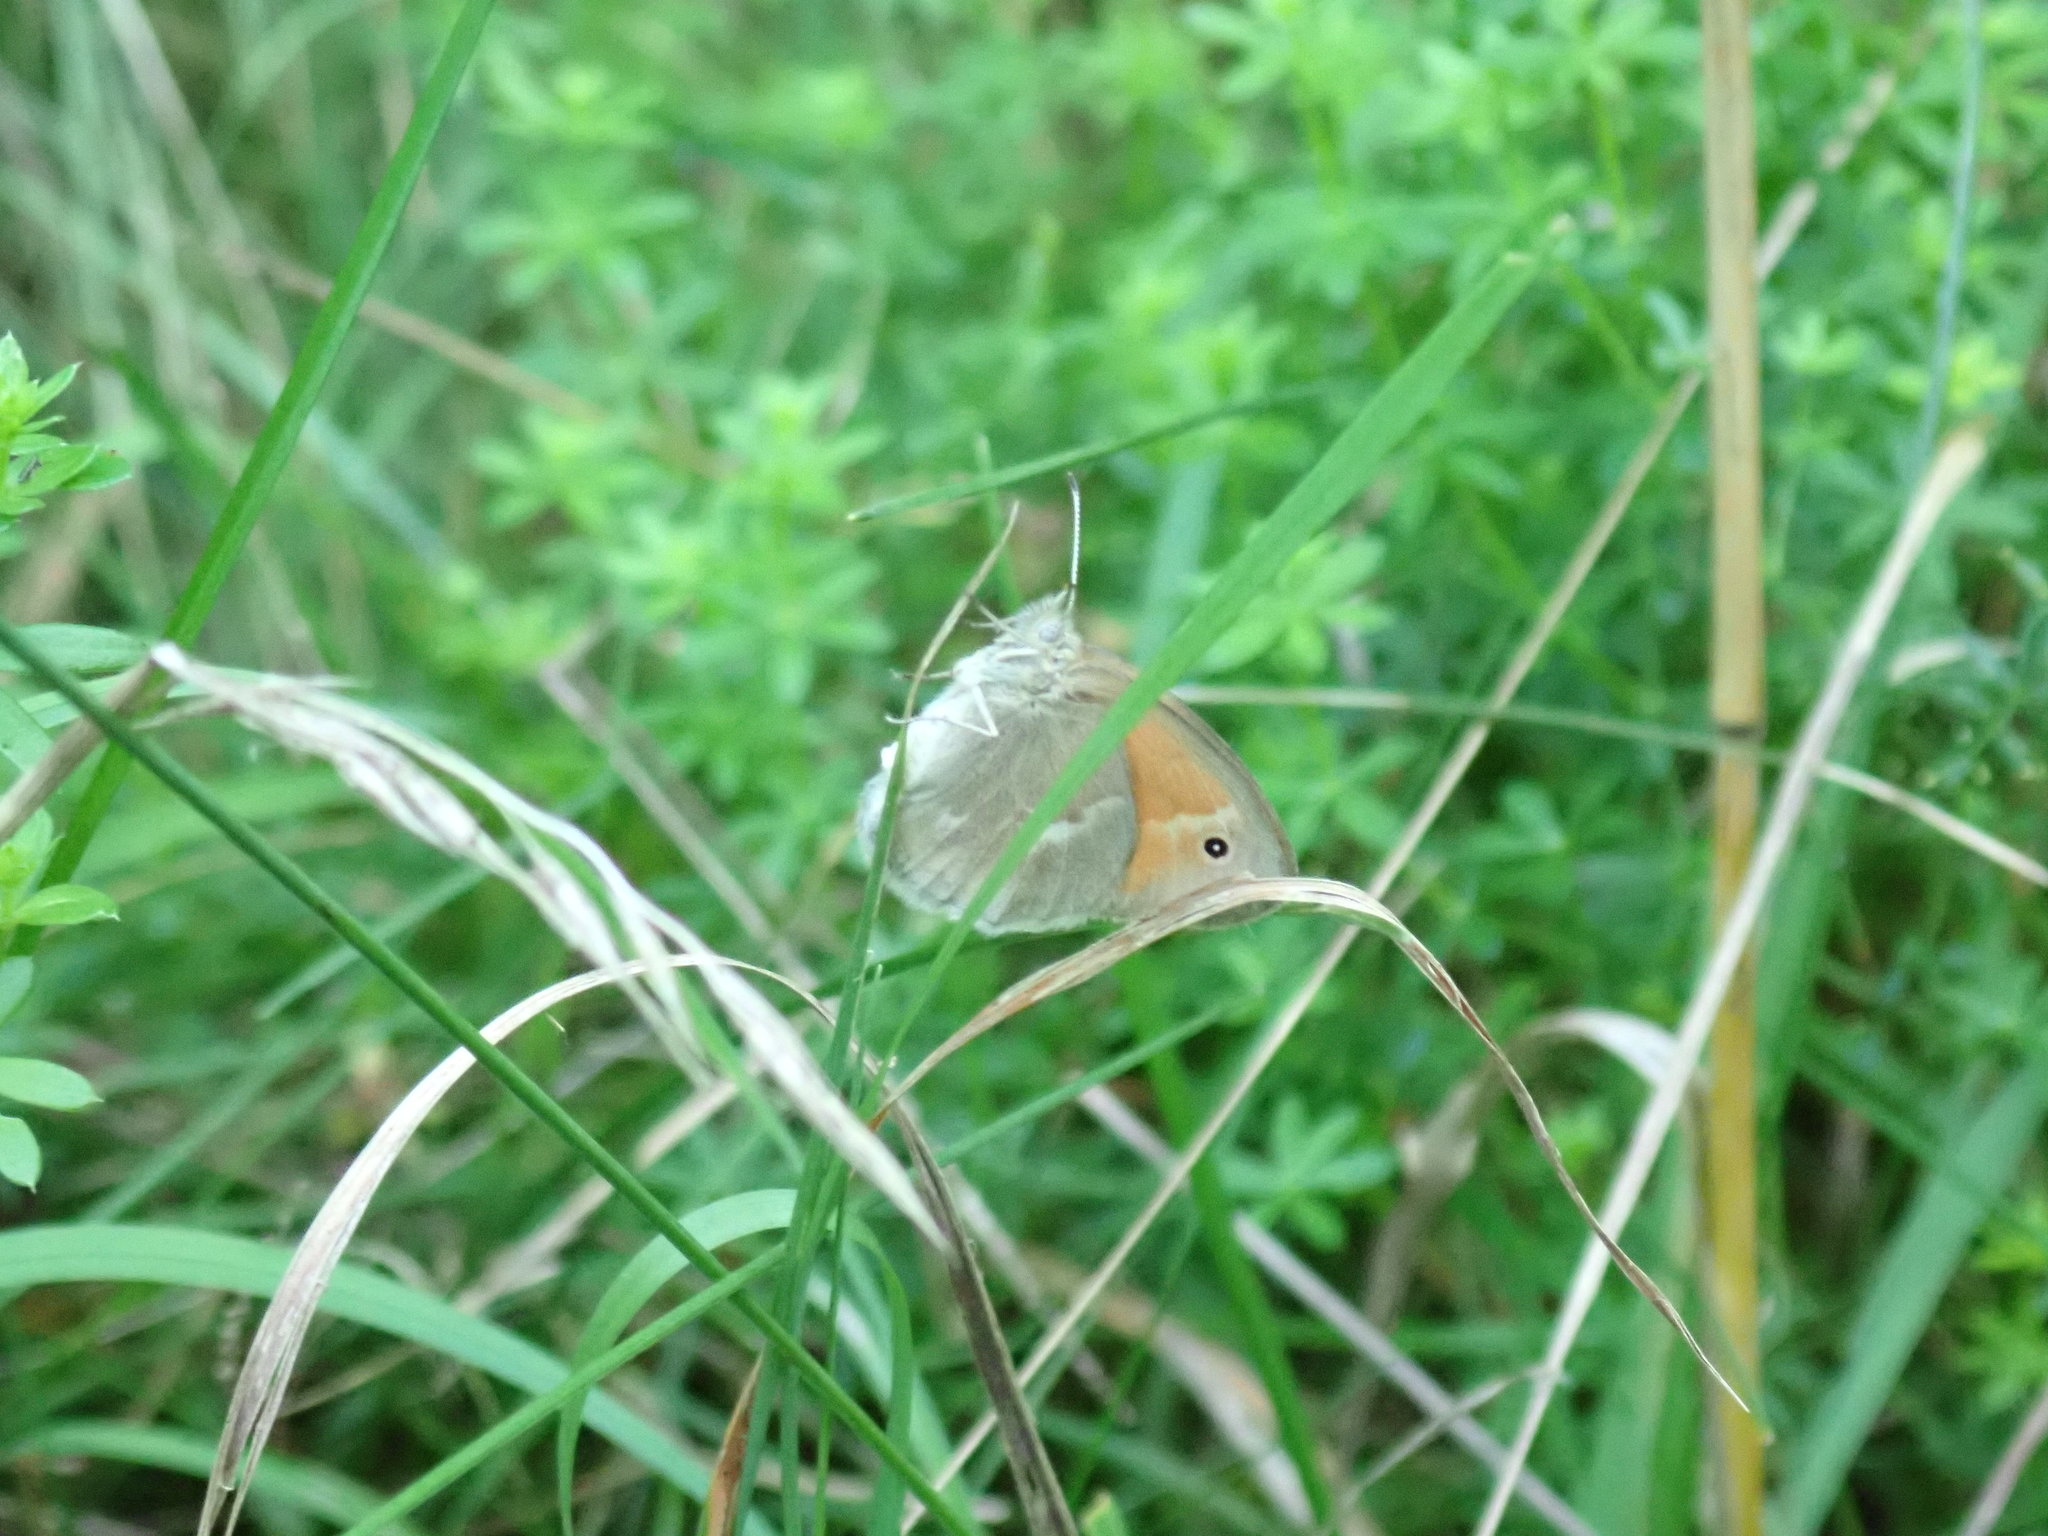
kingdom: Animalia
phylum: Arthropoda
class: Insecta
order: Lepidoptera
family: Nymphalidae
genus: Coenonympha
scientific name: Coenonympha california
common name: Common ringlet
